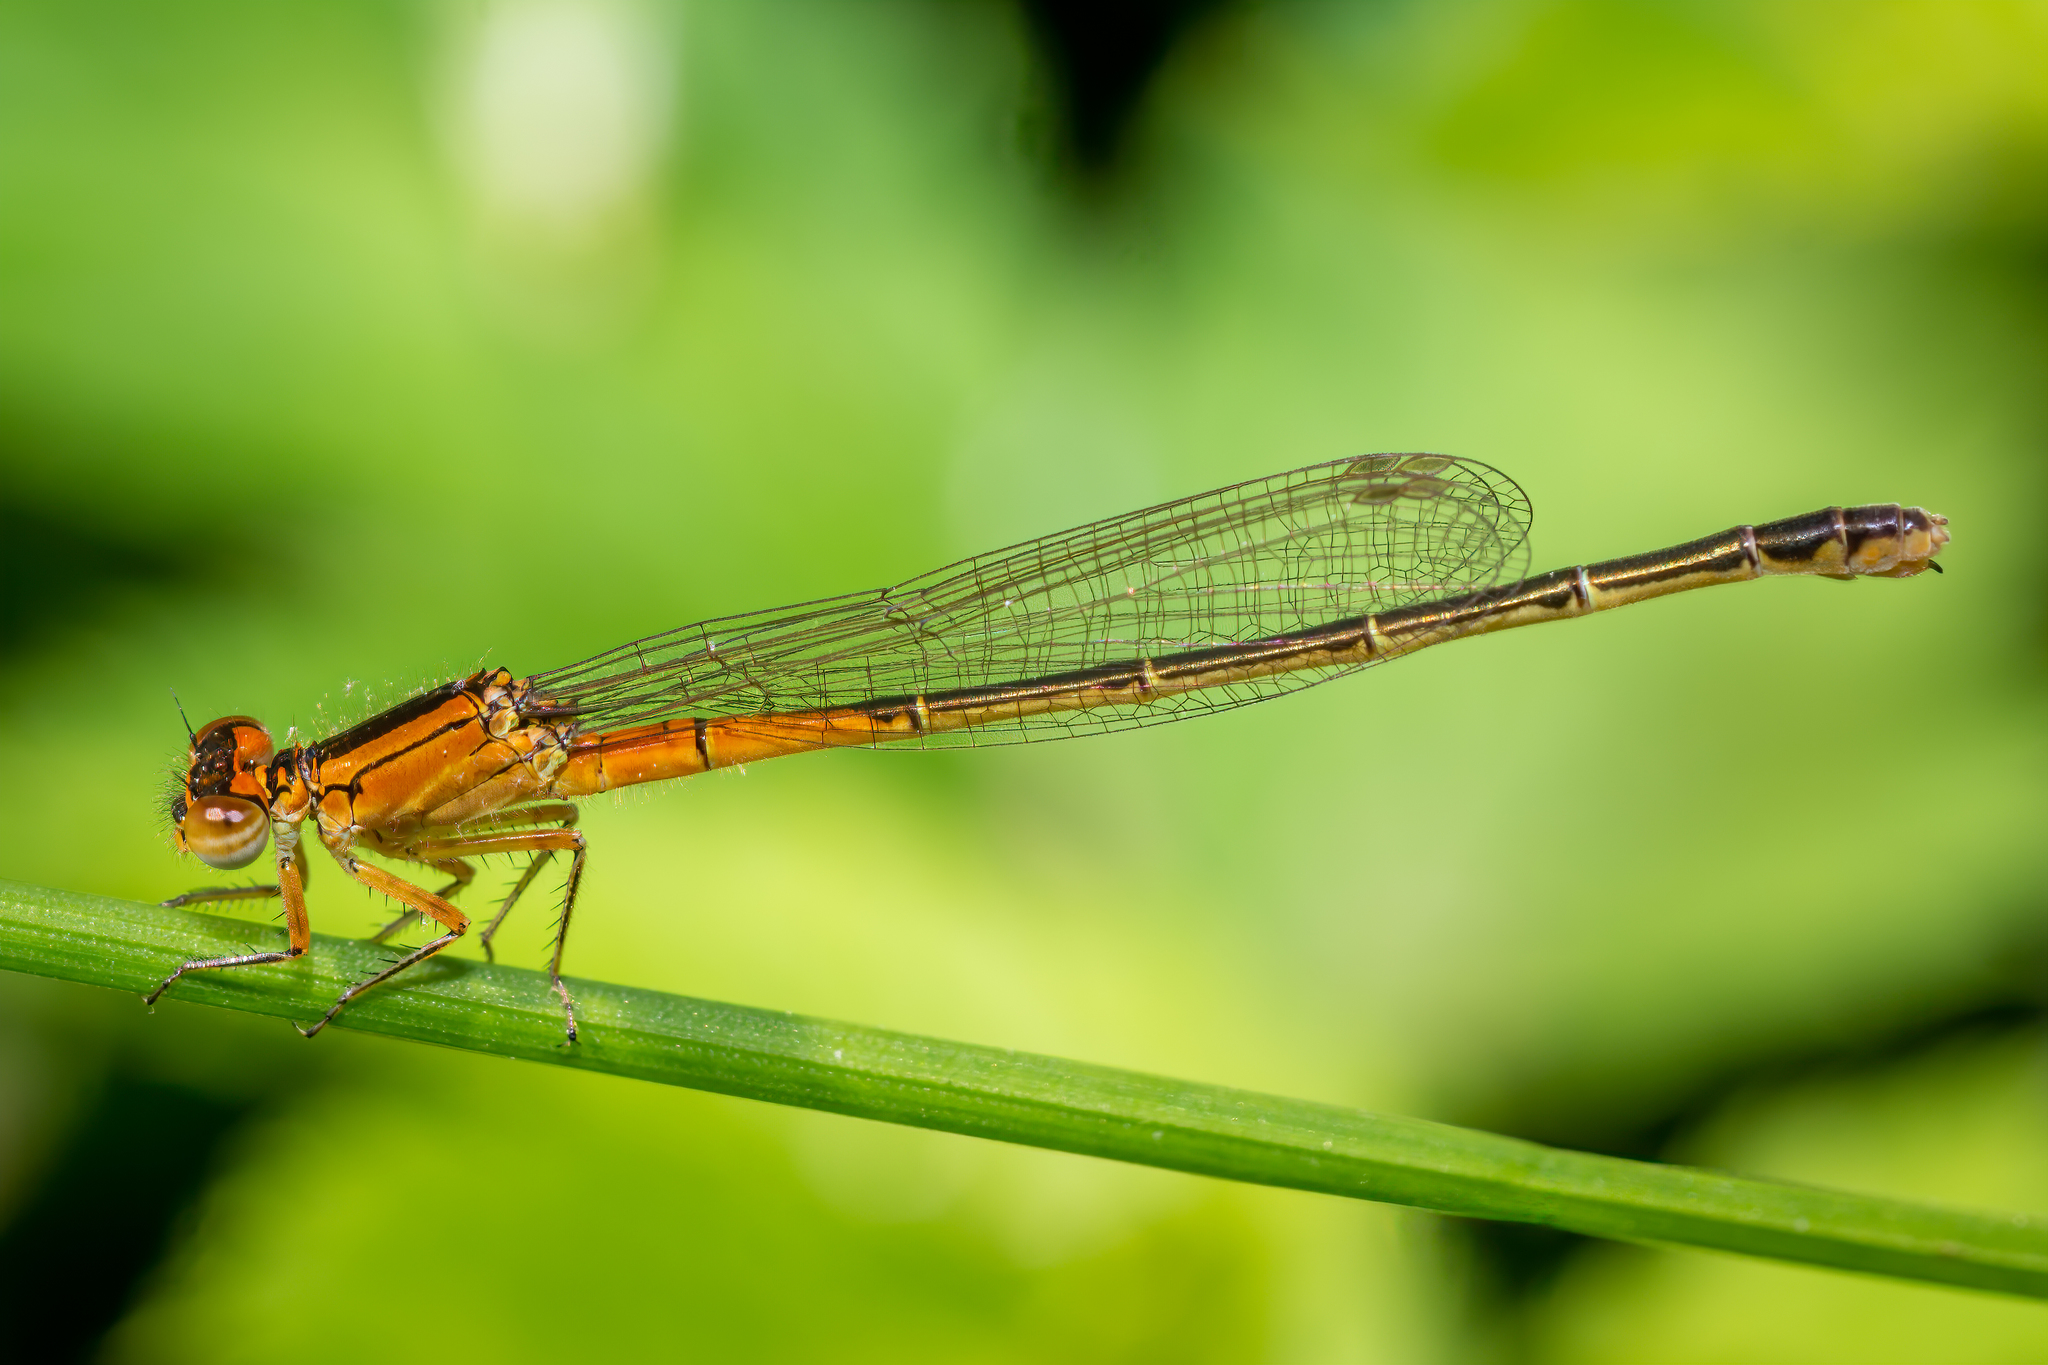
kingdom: Animalia
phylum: Arthropoda
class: Insecta
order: Odonata
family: Coenagrionidae
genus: Ischnura
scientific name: Ischnura verticalis
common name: Eastern forktail
